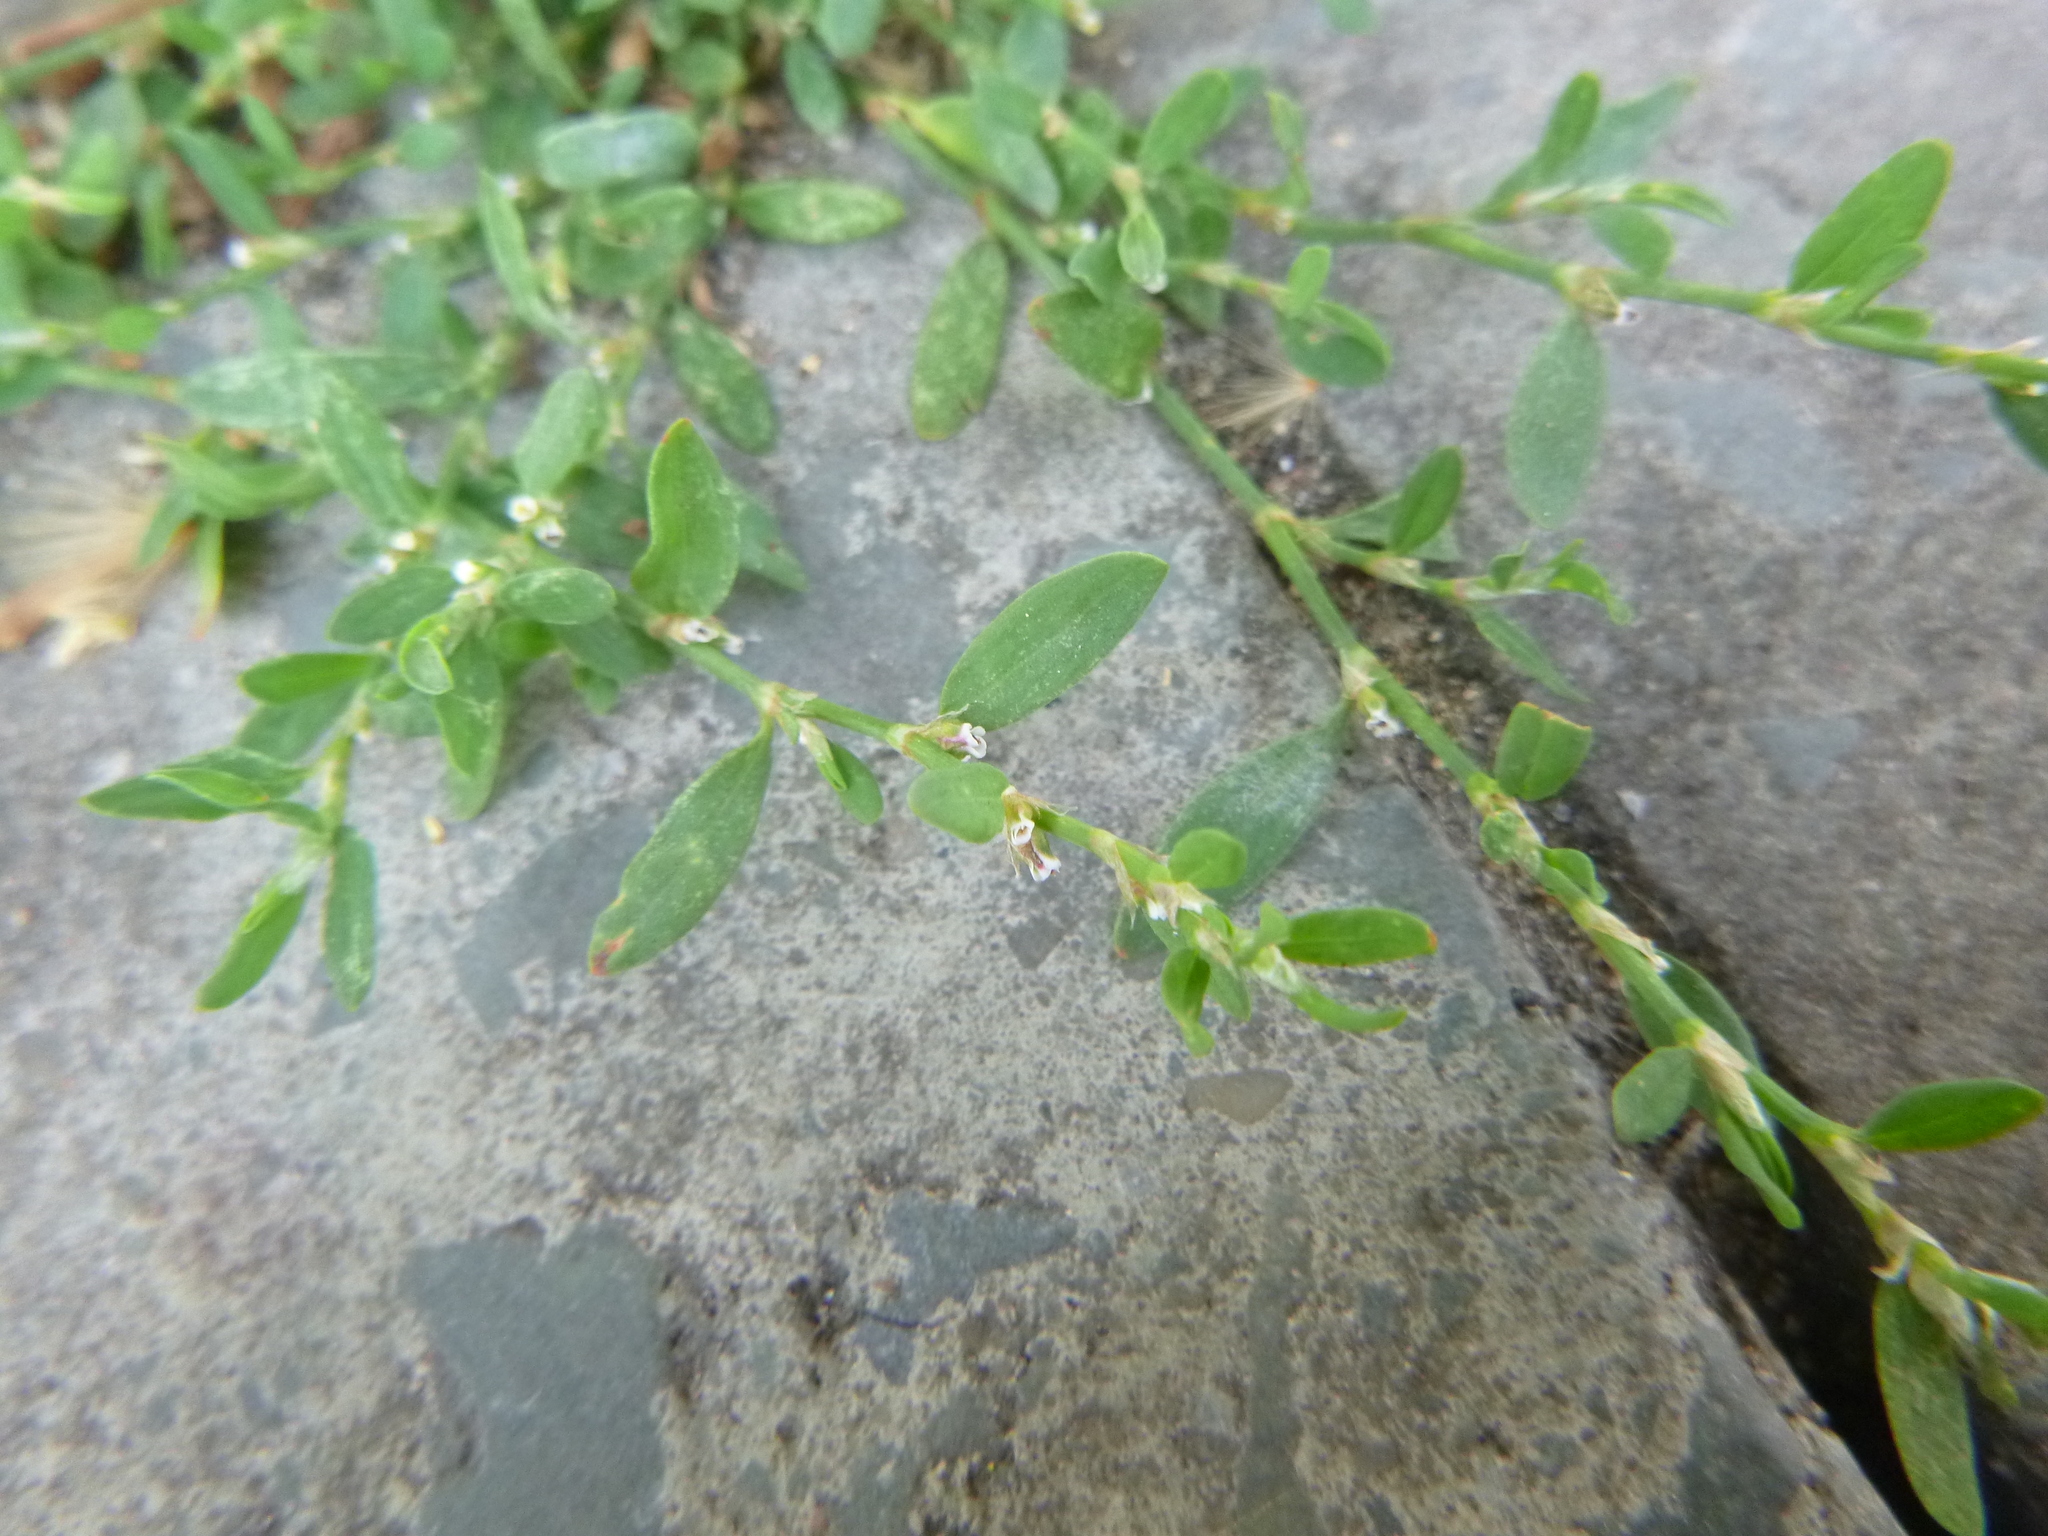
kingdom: Plantae
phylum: Tracheophyta
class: Magnoliopsida
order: Caryophyllales
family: Polygonaceae
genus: Polygonum
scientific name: Polygonum aviculare
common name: Prostrate knotweed
